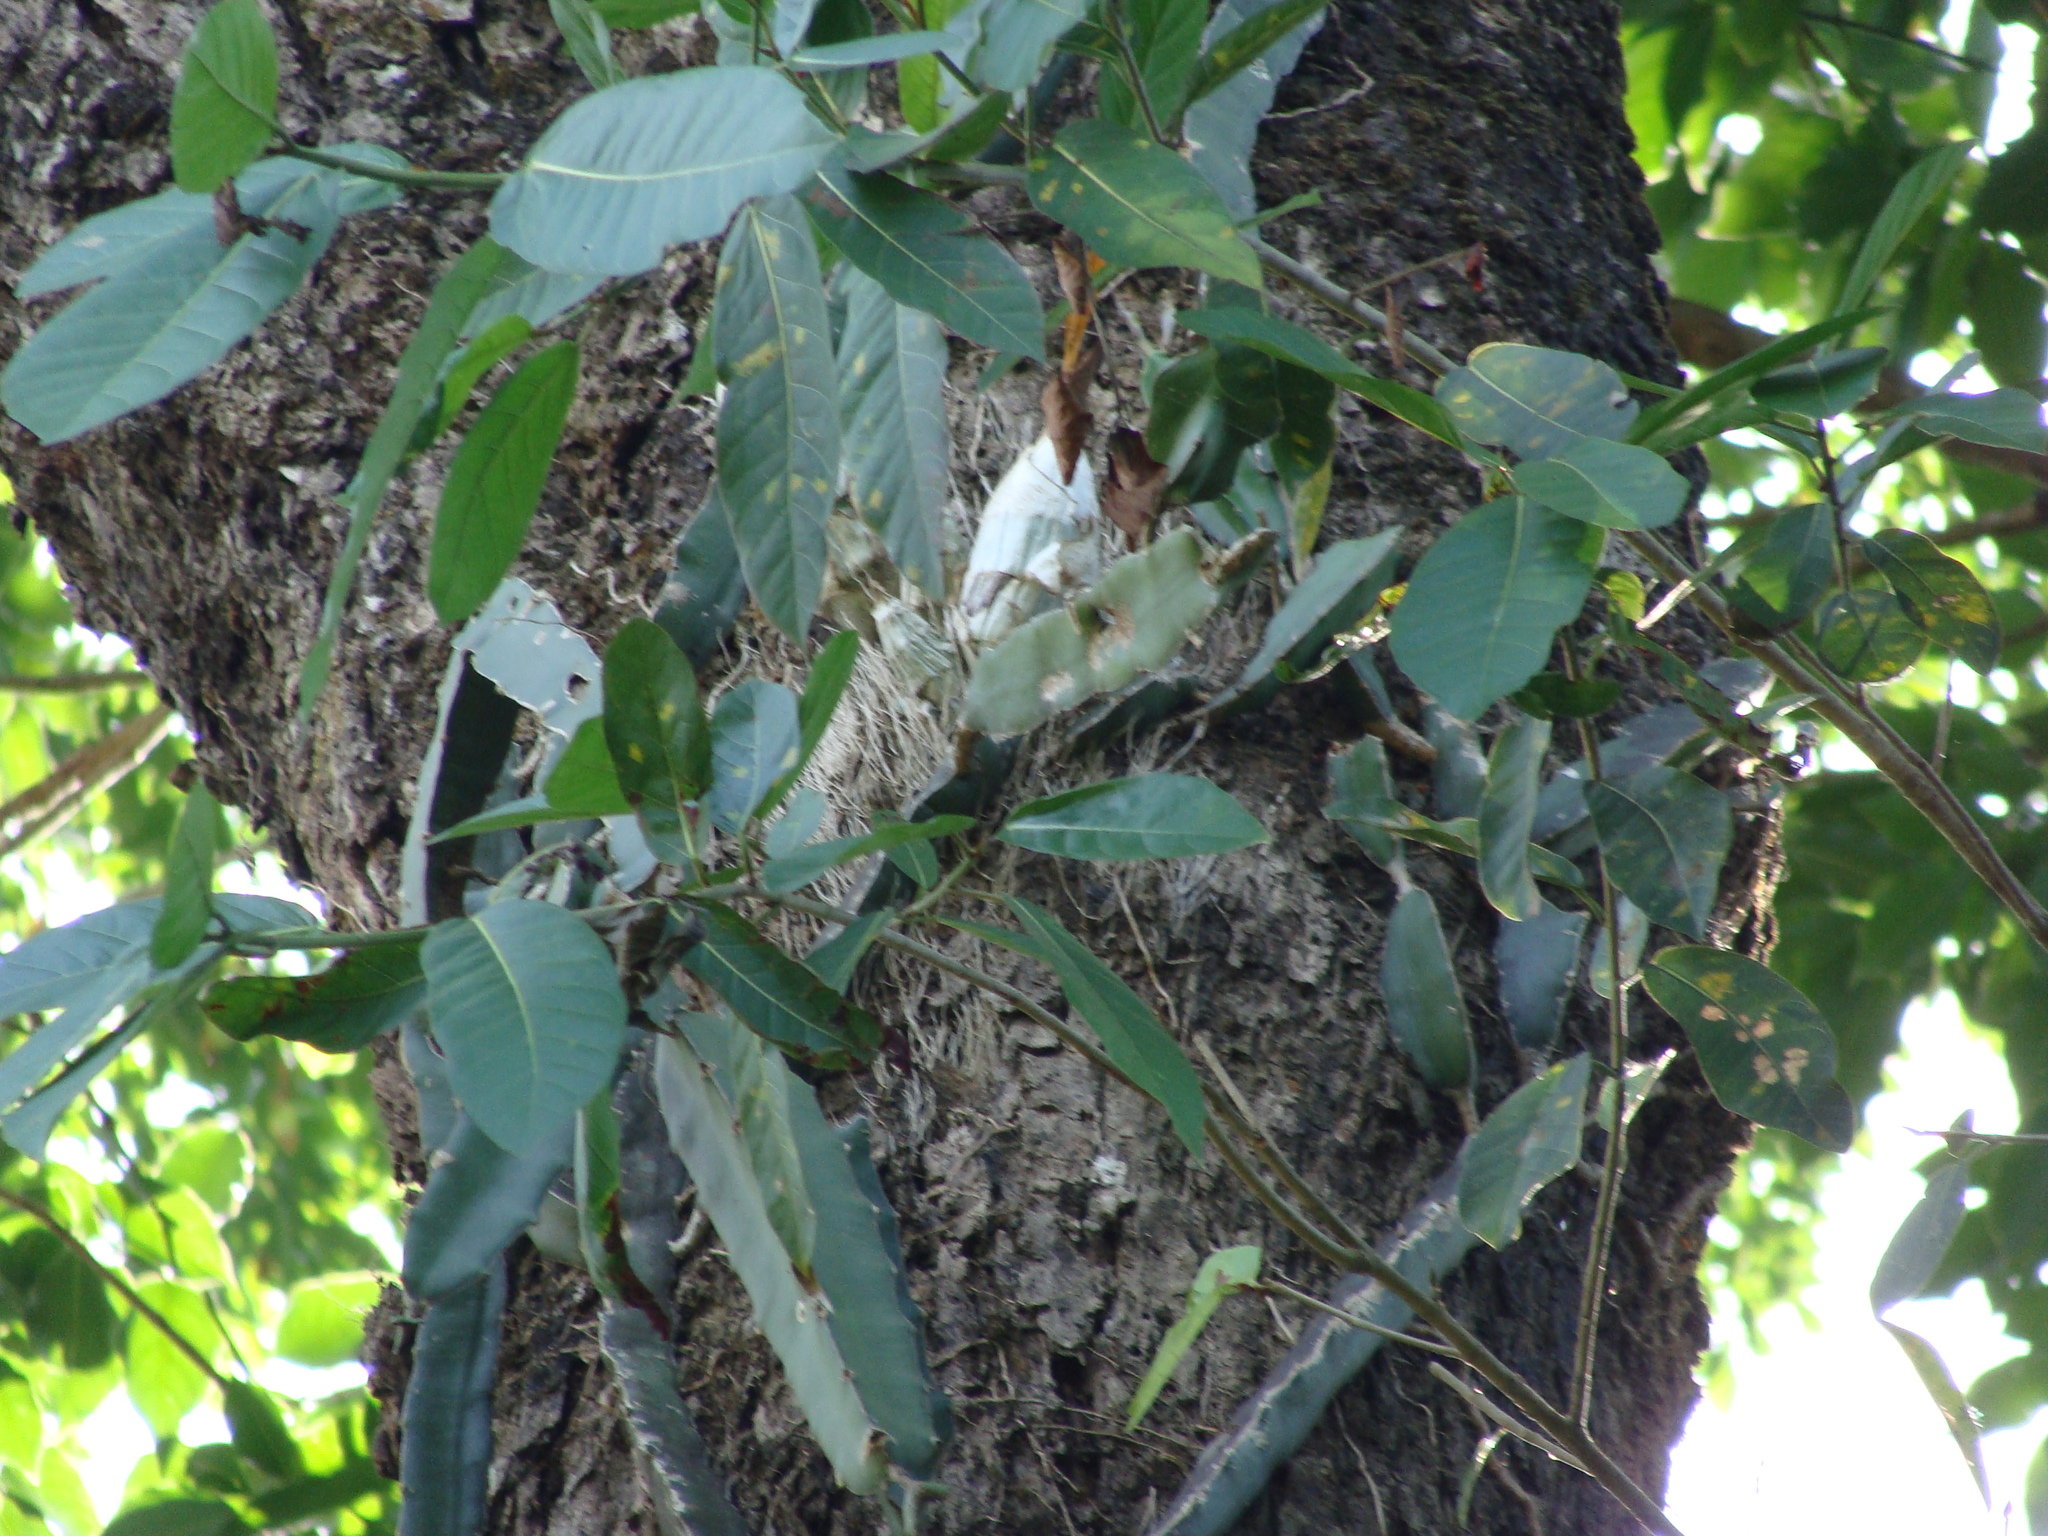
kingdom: Plantae
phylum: Tracheophyta
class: Magnoliopsida
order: Caryophyllales
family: Cactaceae
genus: Selenicereus
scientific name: Selenicereus triangularis
